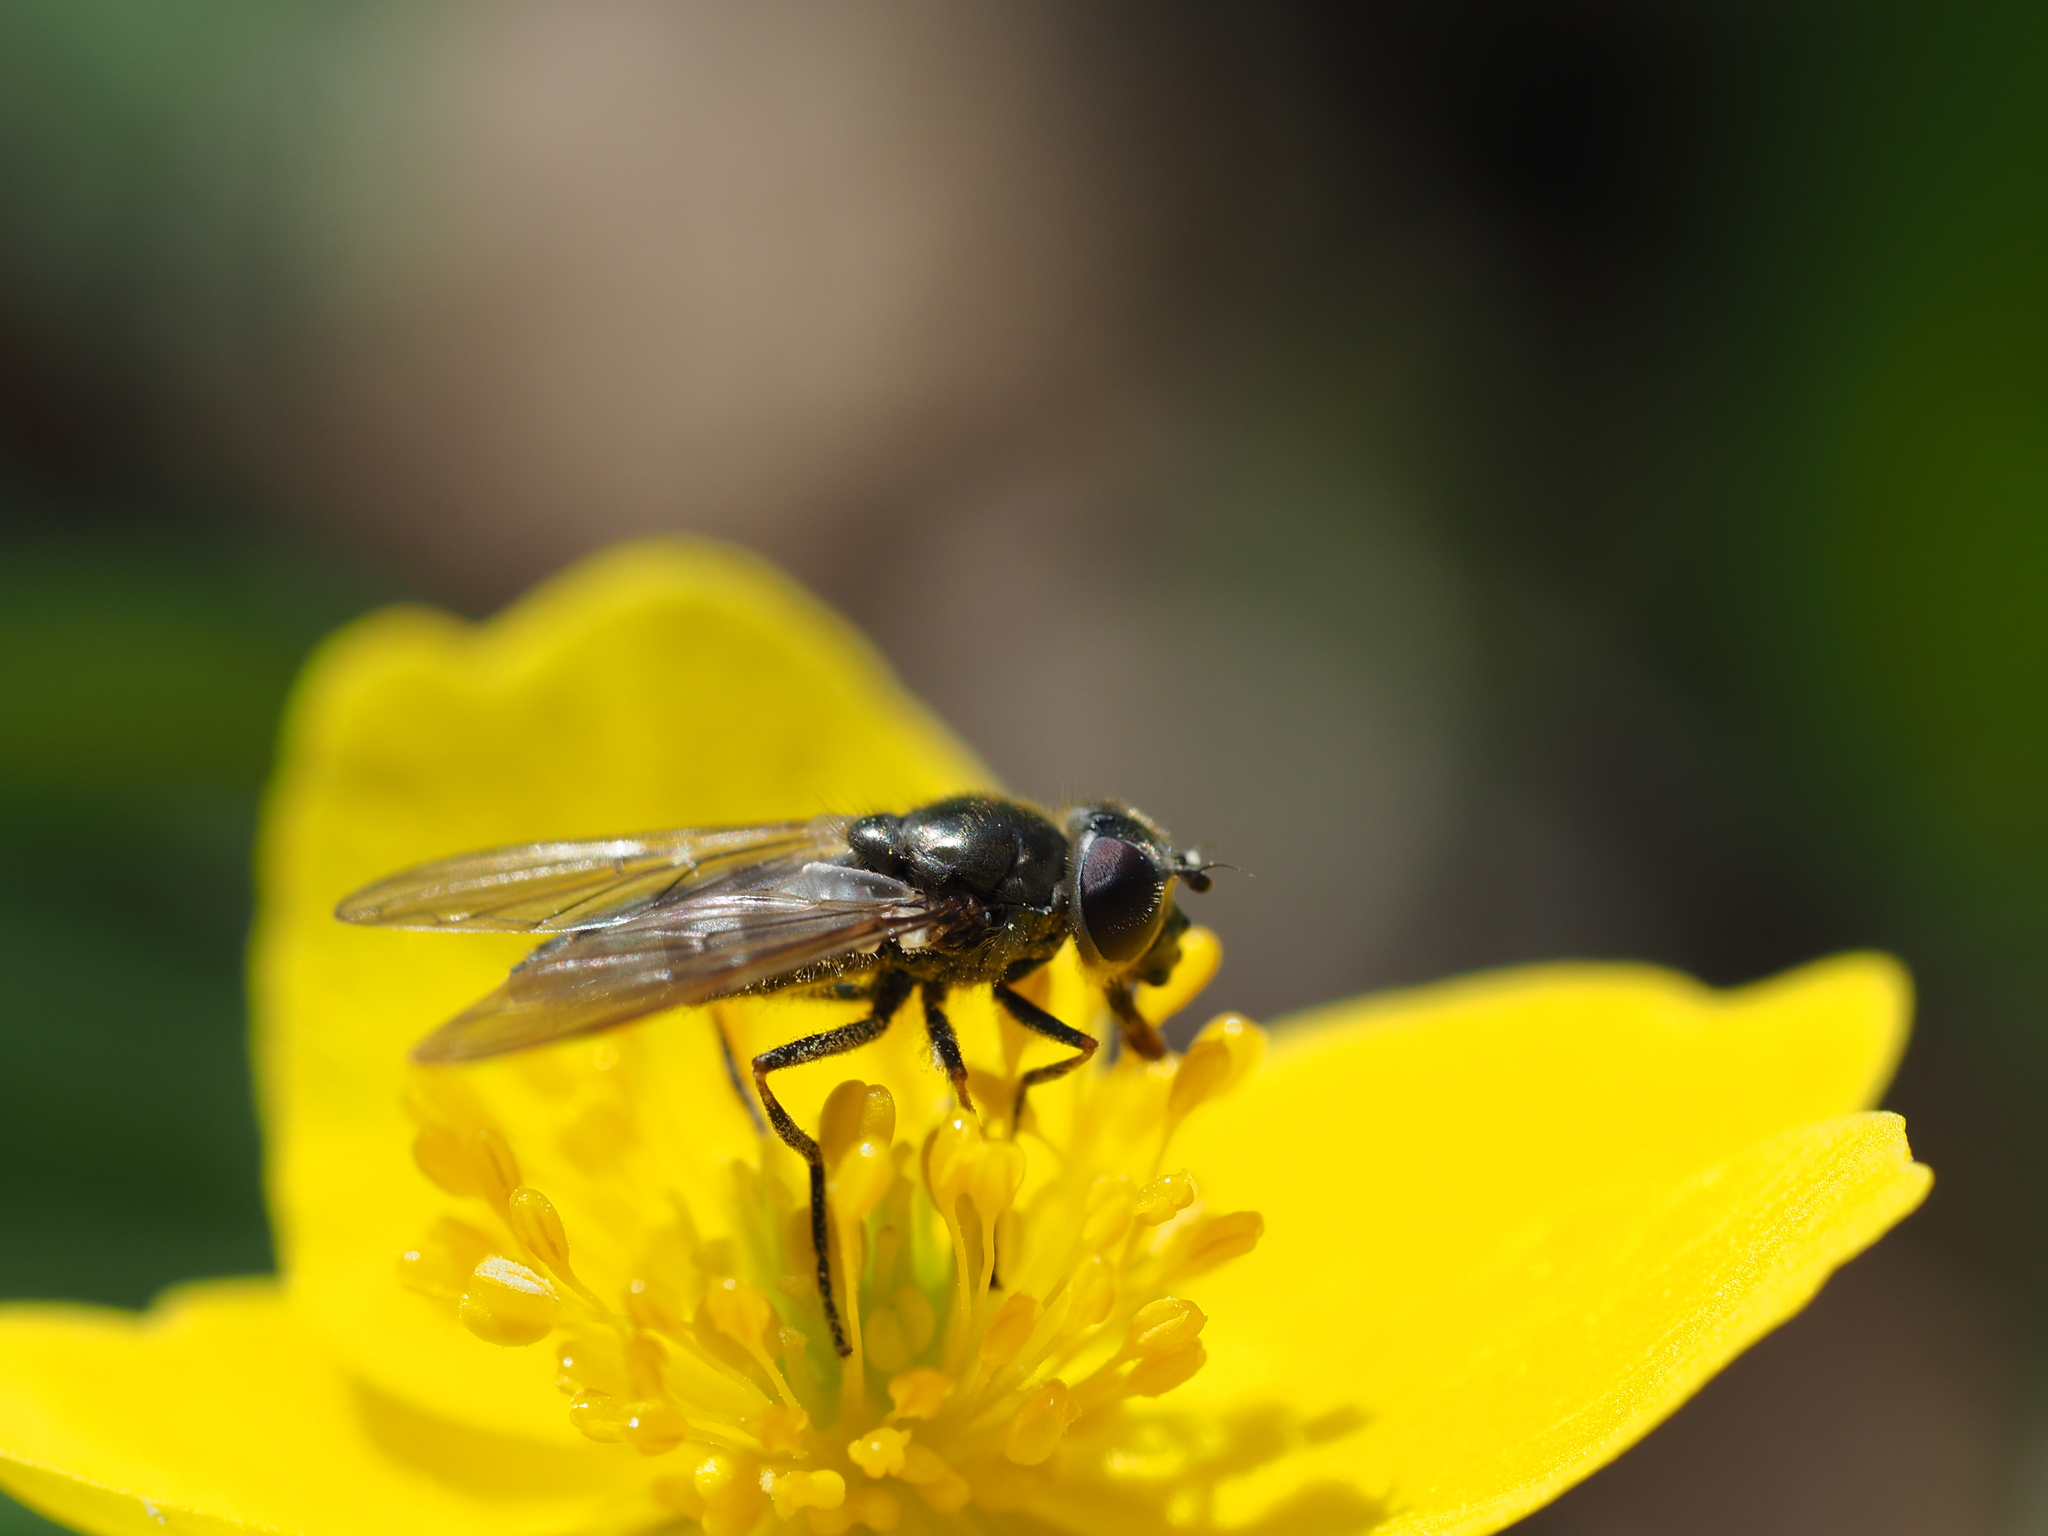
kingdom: Animalia
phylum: Arthropoda
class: Insecta
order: Diptera
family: Syrphidae
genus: Cheilosia
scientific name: Cheilosia fasciata
